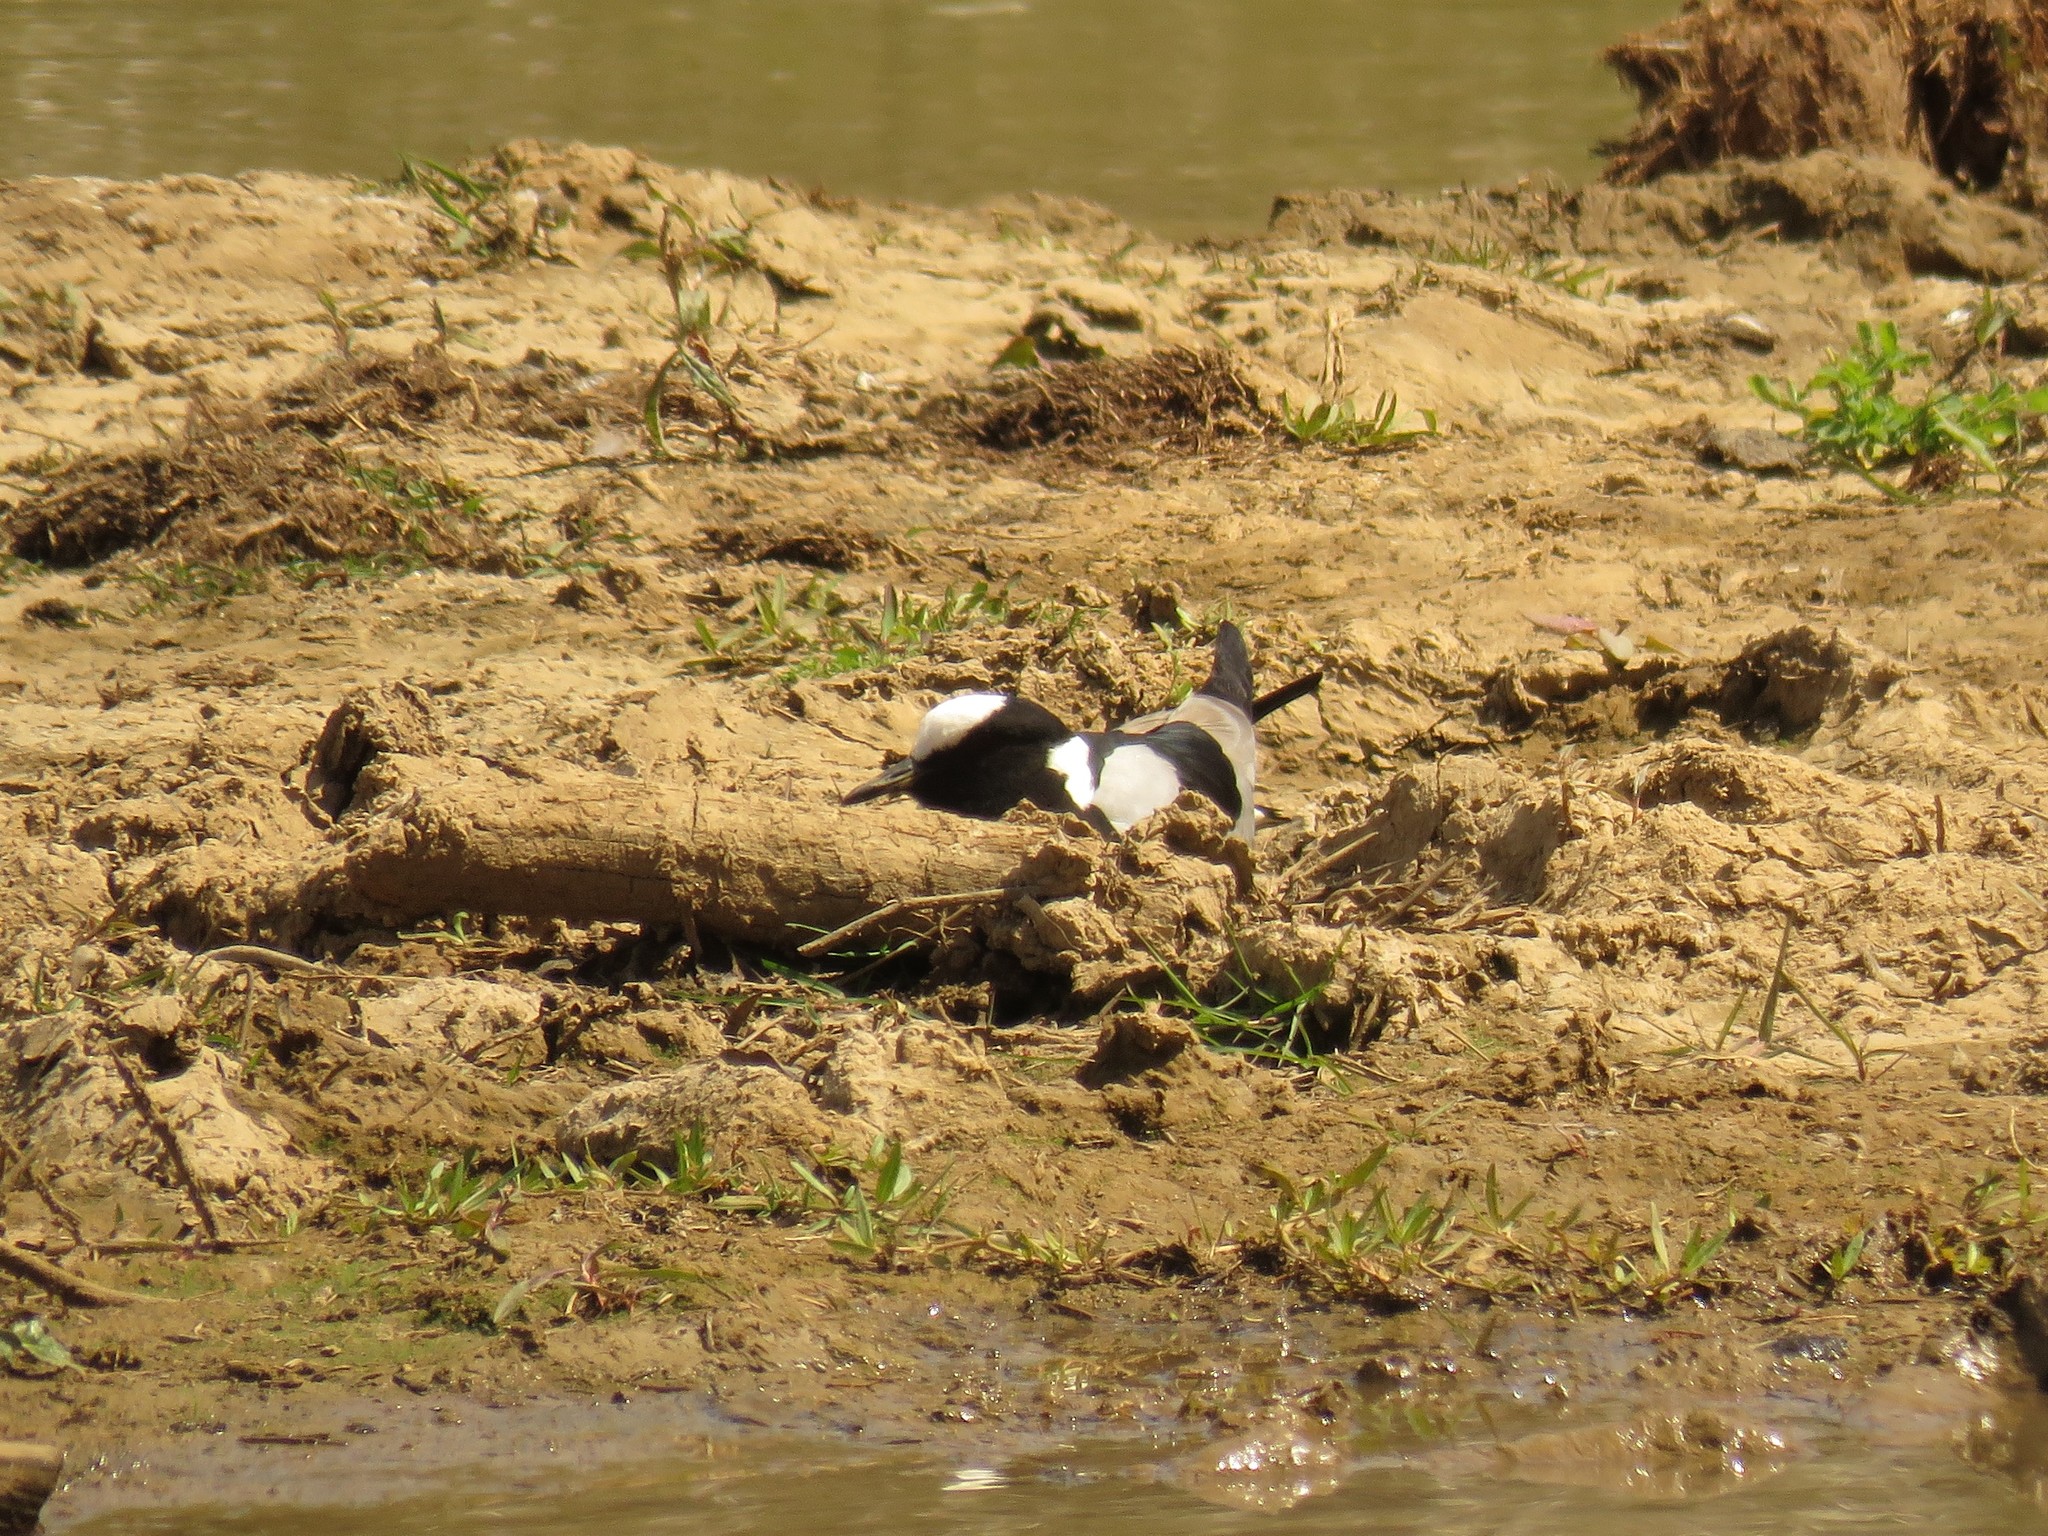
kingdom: Animalia
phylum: Chordata
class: Aves
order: Charadriiformes
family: Charadriidae
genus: Vanellus
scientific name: Vanellus armatus
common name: Blacksmith lapwing
